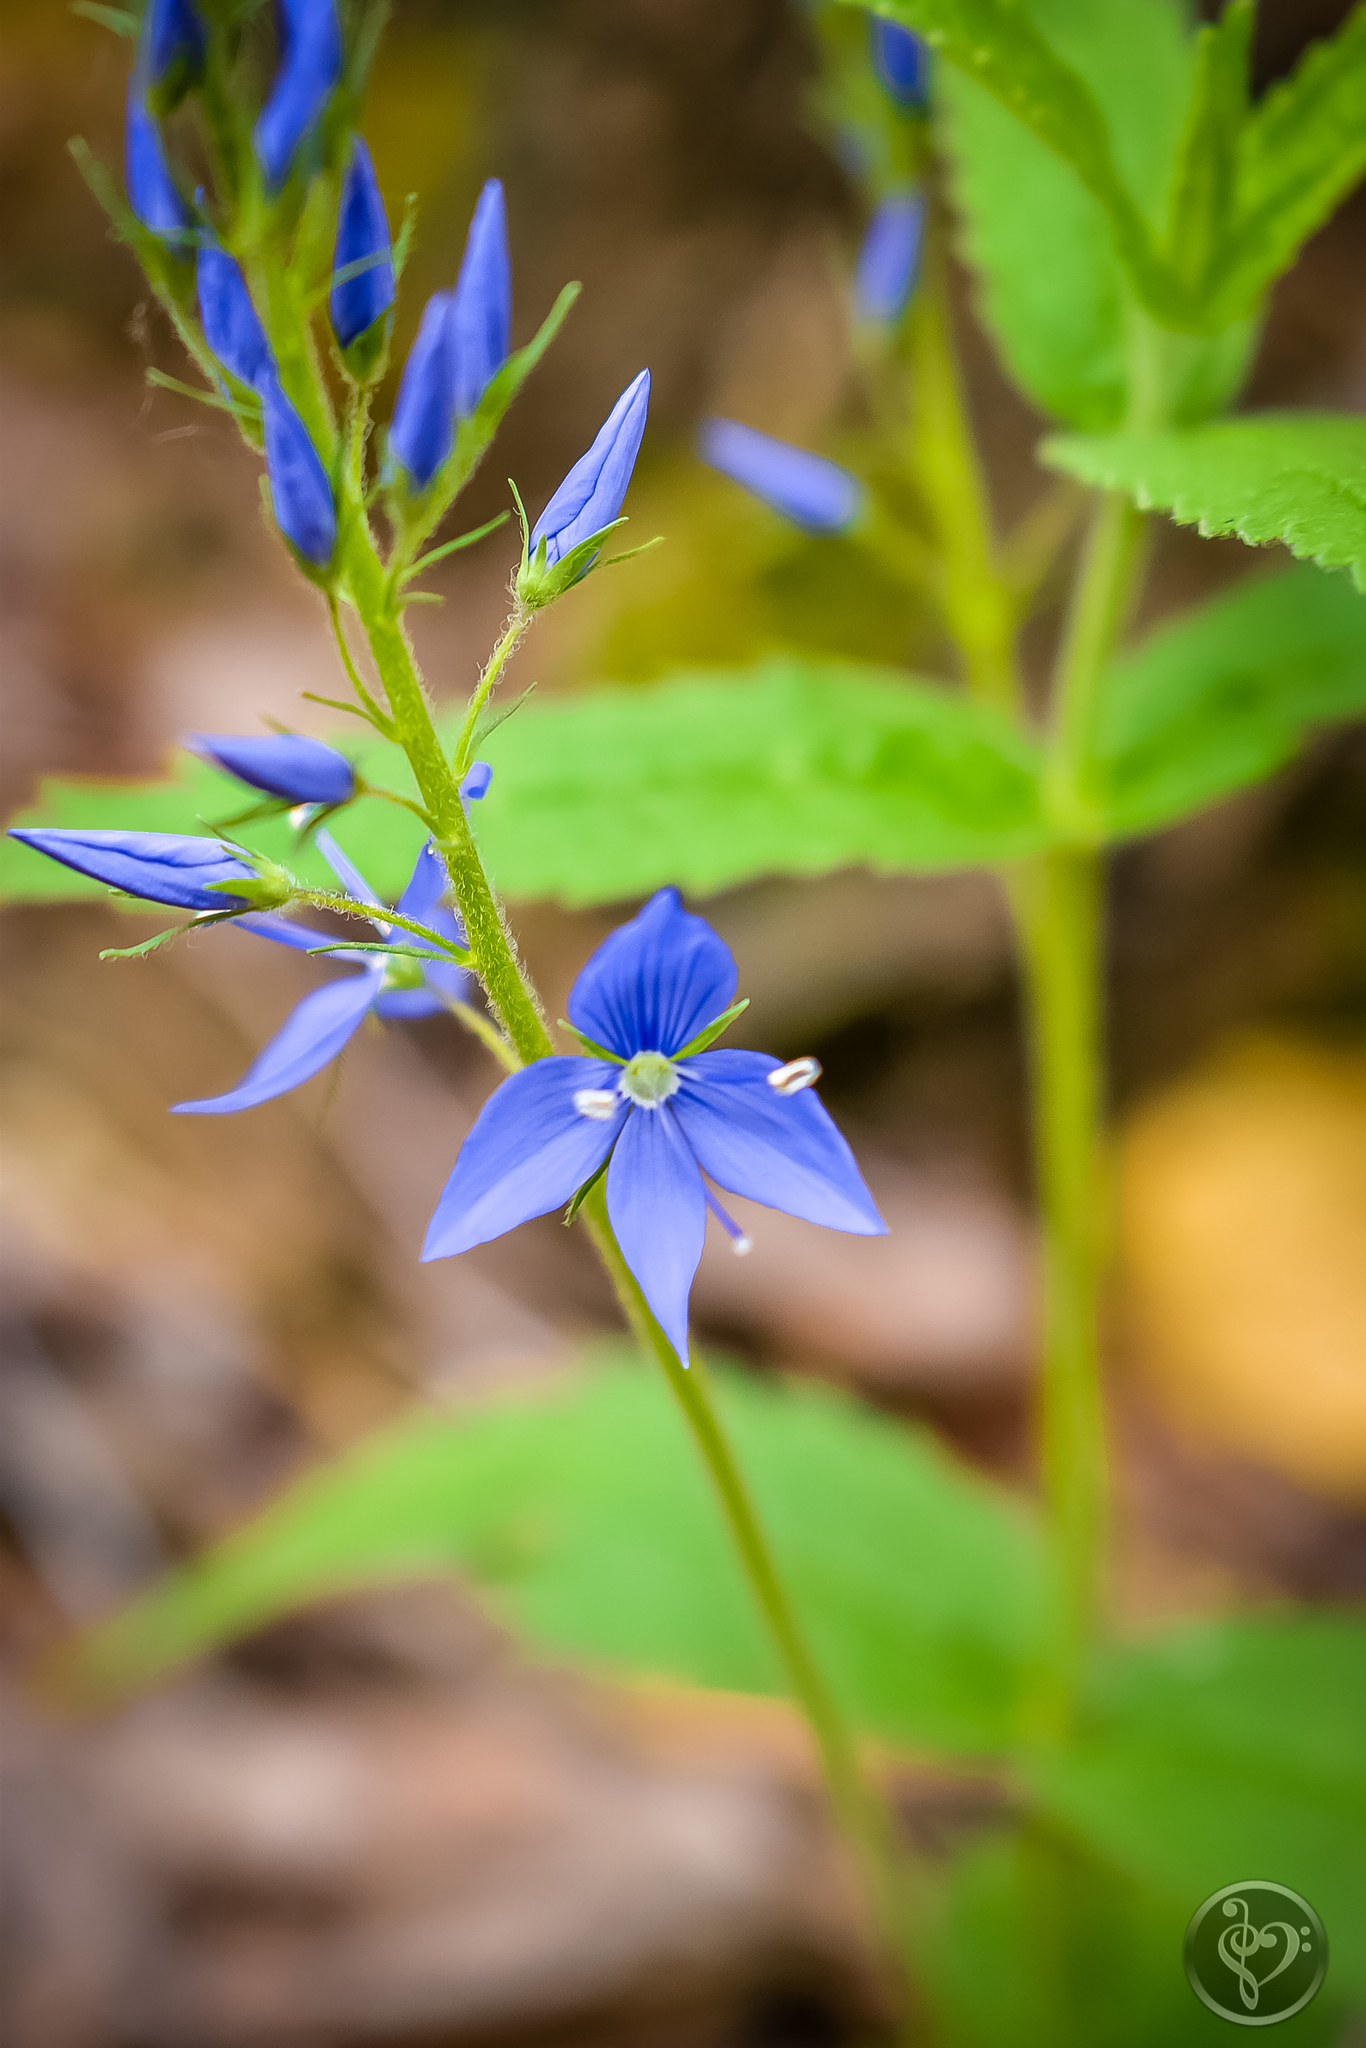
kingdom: Plantae
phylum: Tracheophyta
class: Magnoliopsida
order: Lamiales
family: Plantaginaceae
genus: Veronica
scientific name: Veronica teucrium
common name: Large speedwell
